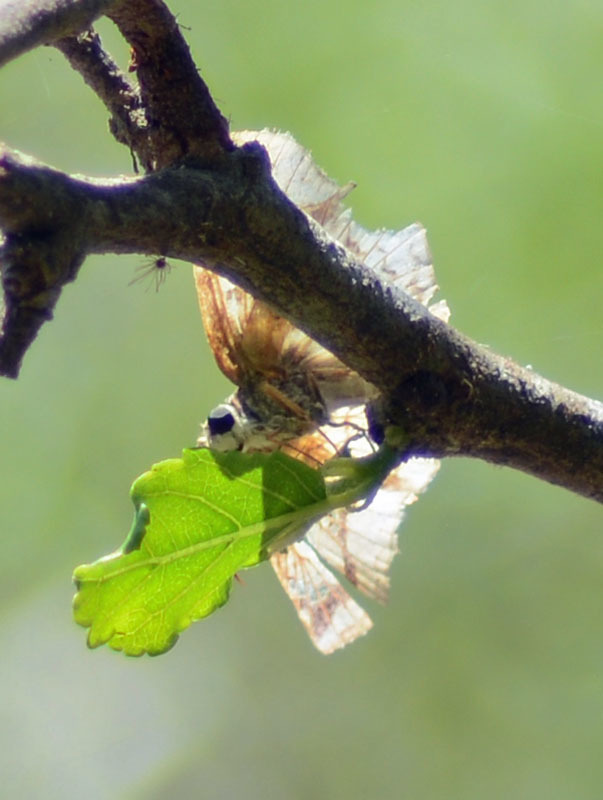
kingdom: Animalia
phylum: Arthropoda
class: Insecta
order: Lepidoptera
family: Hesperiidae
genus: Mylon
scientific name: Mylon pelopidas
